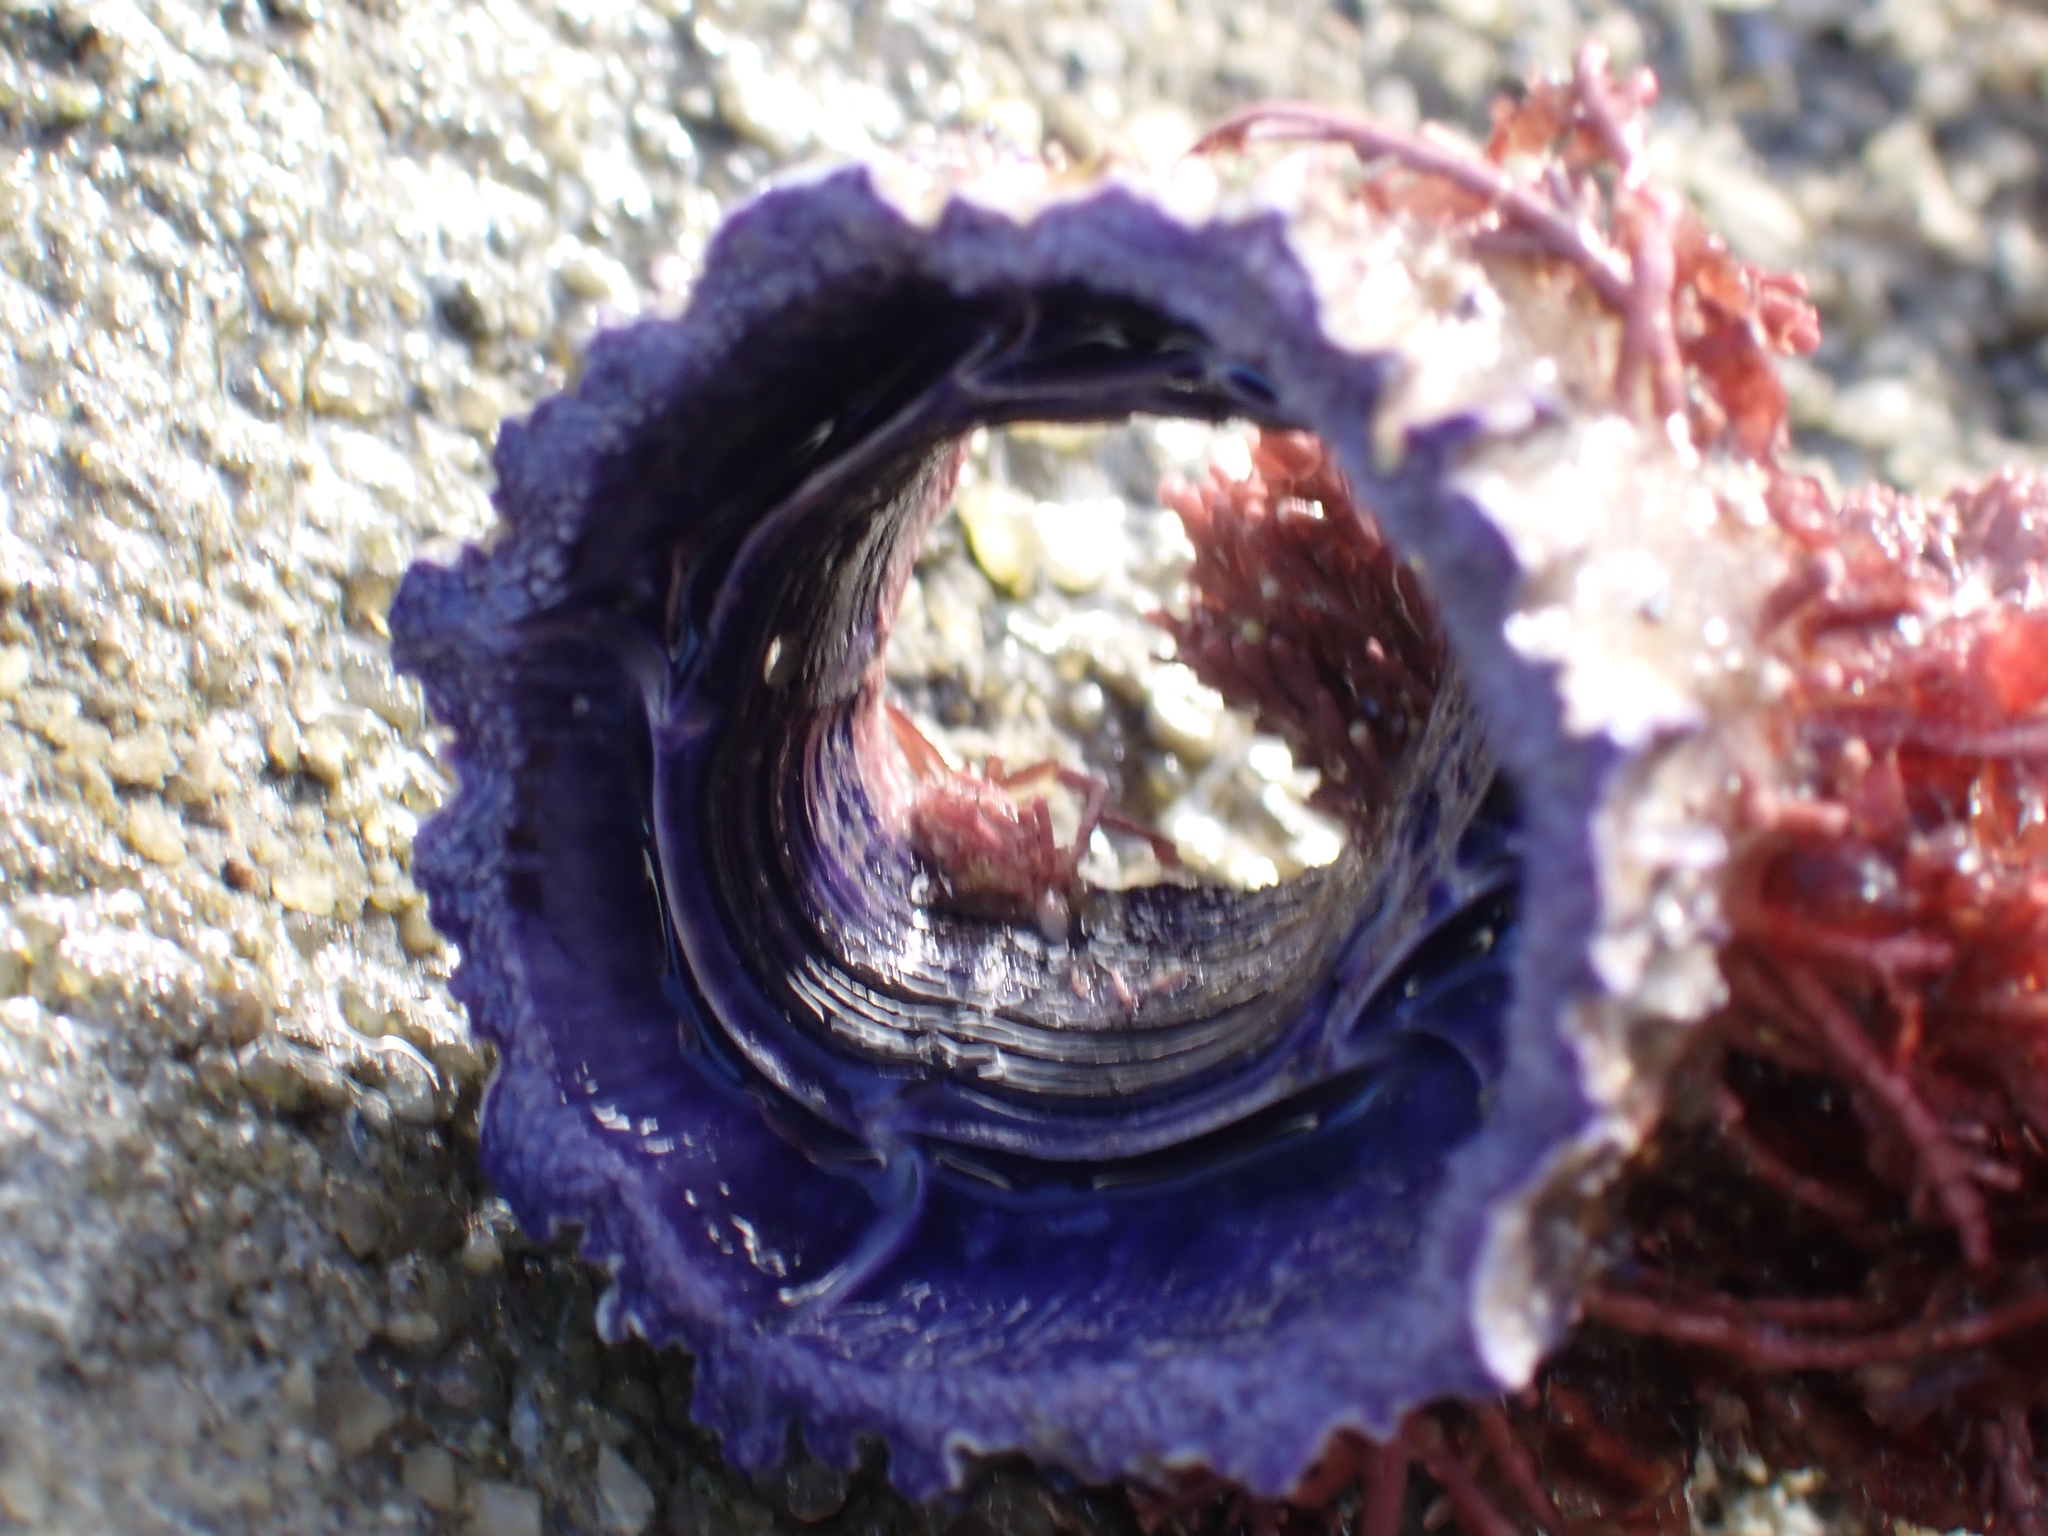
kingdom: Animalia
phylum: Arthropoda
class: Maxillopoda
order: Sessilia
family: Austrobalanidae
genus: Austrobalanus
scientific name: Austrobalanus imperator
